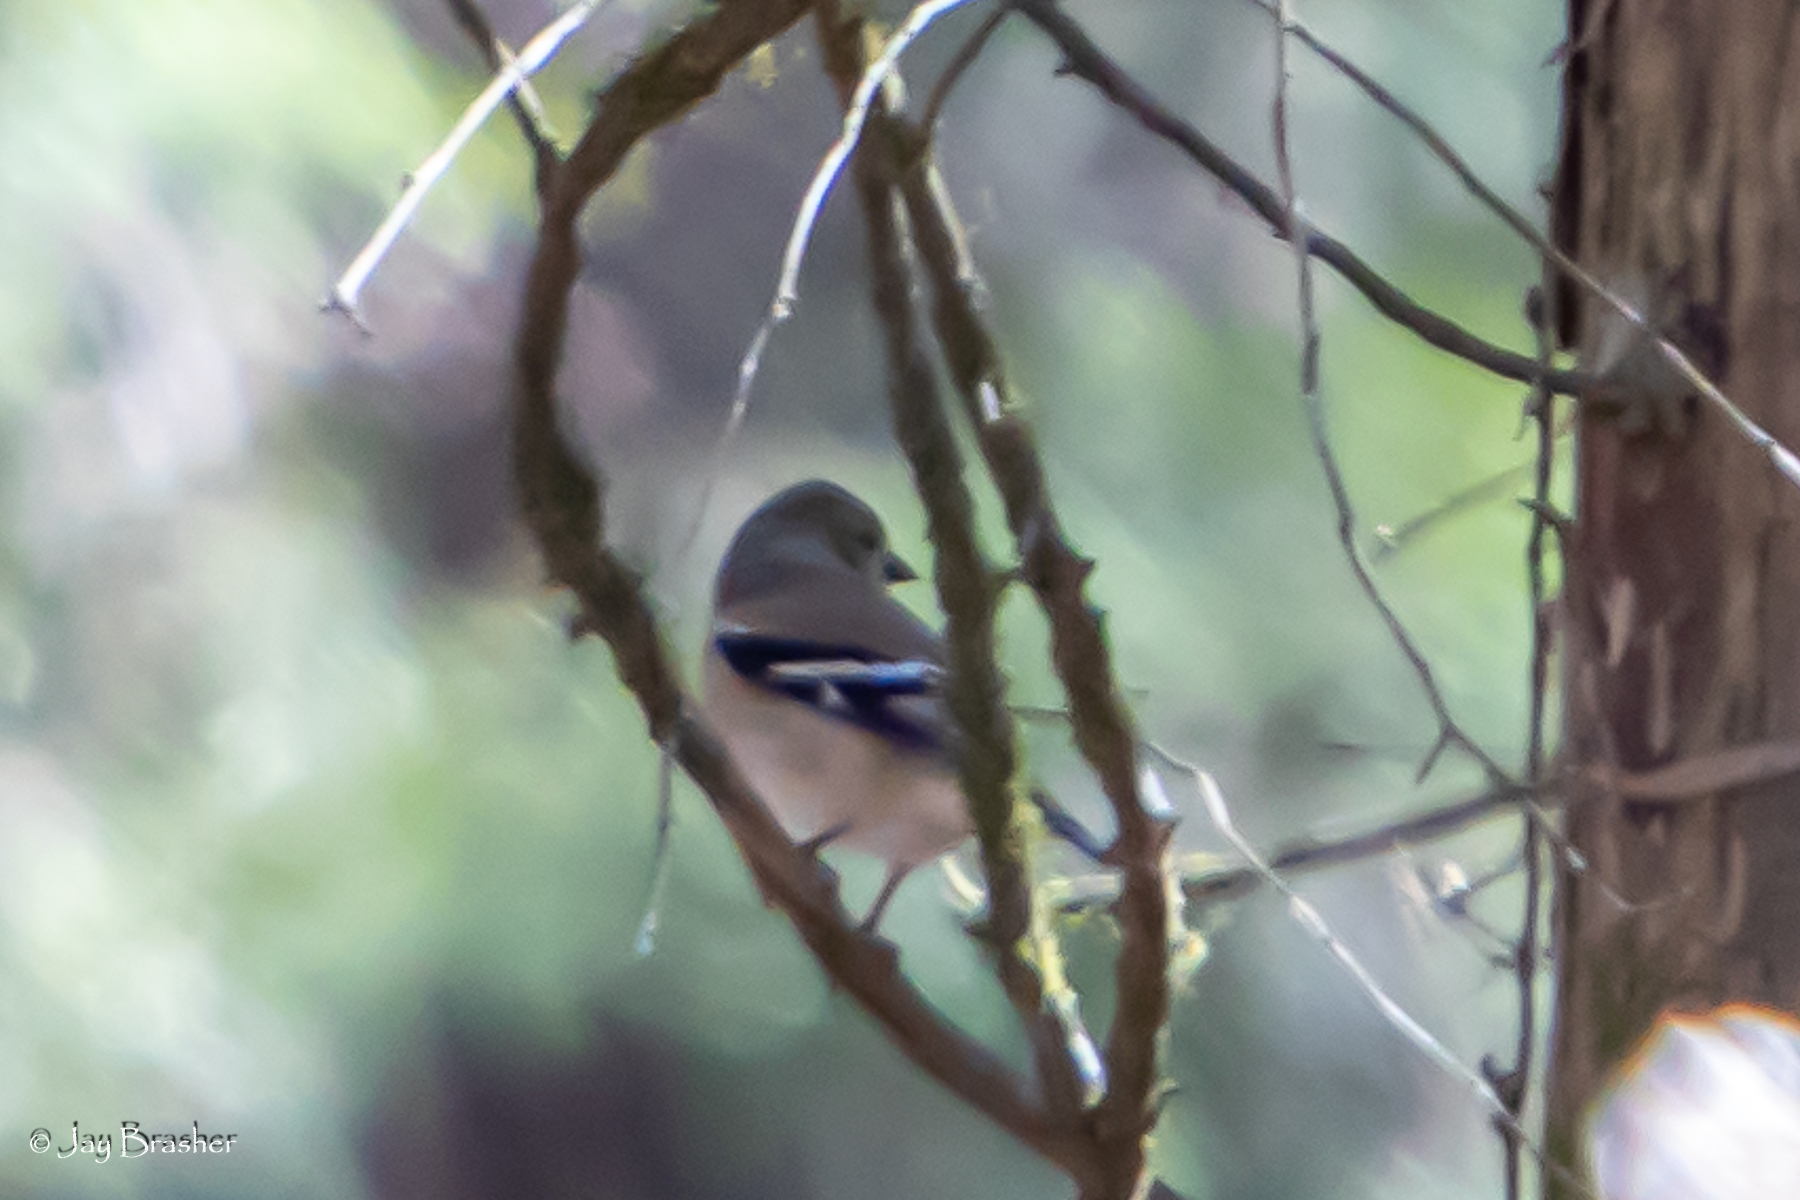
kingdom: Animalia
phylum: Chordata
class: Aves
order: Passeriformes
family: Fringillidae
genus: Spinus
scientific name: Spinus tristis
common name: American goldfinch
